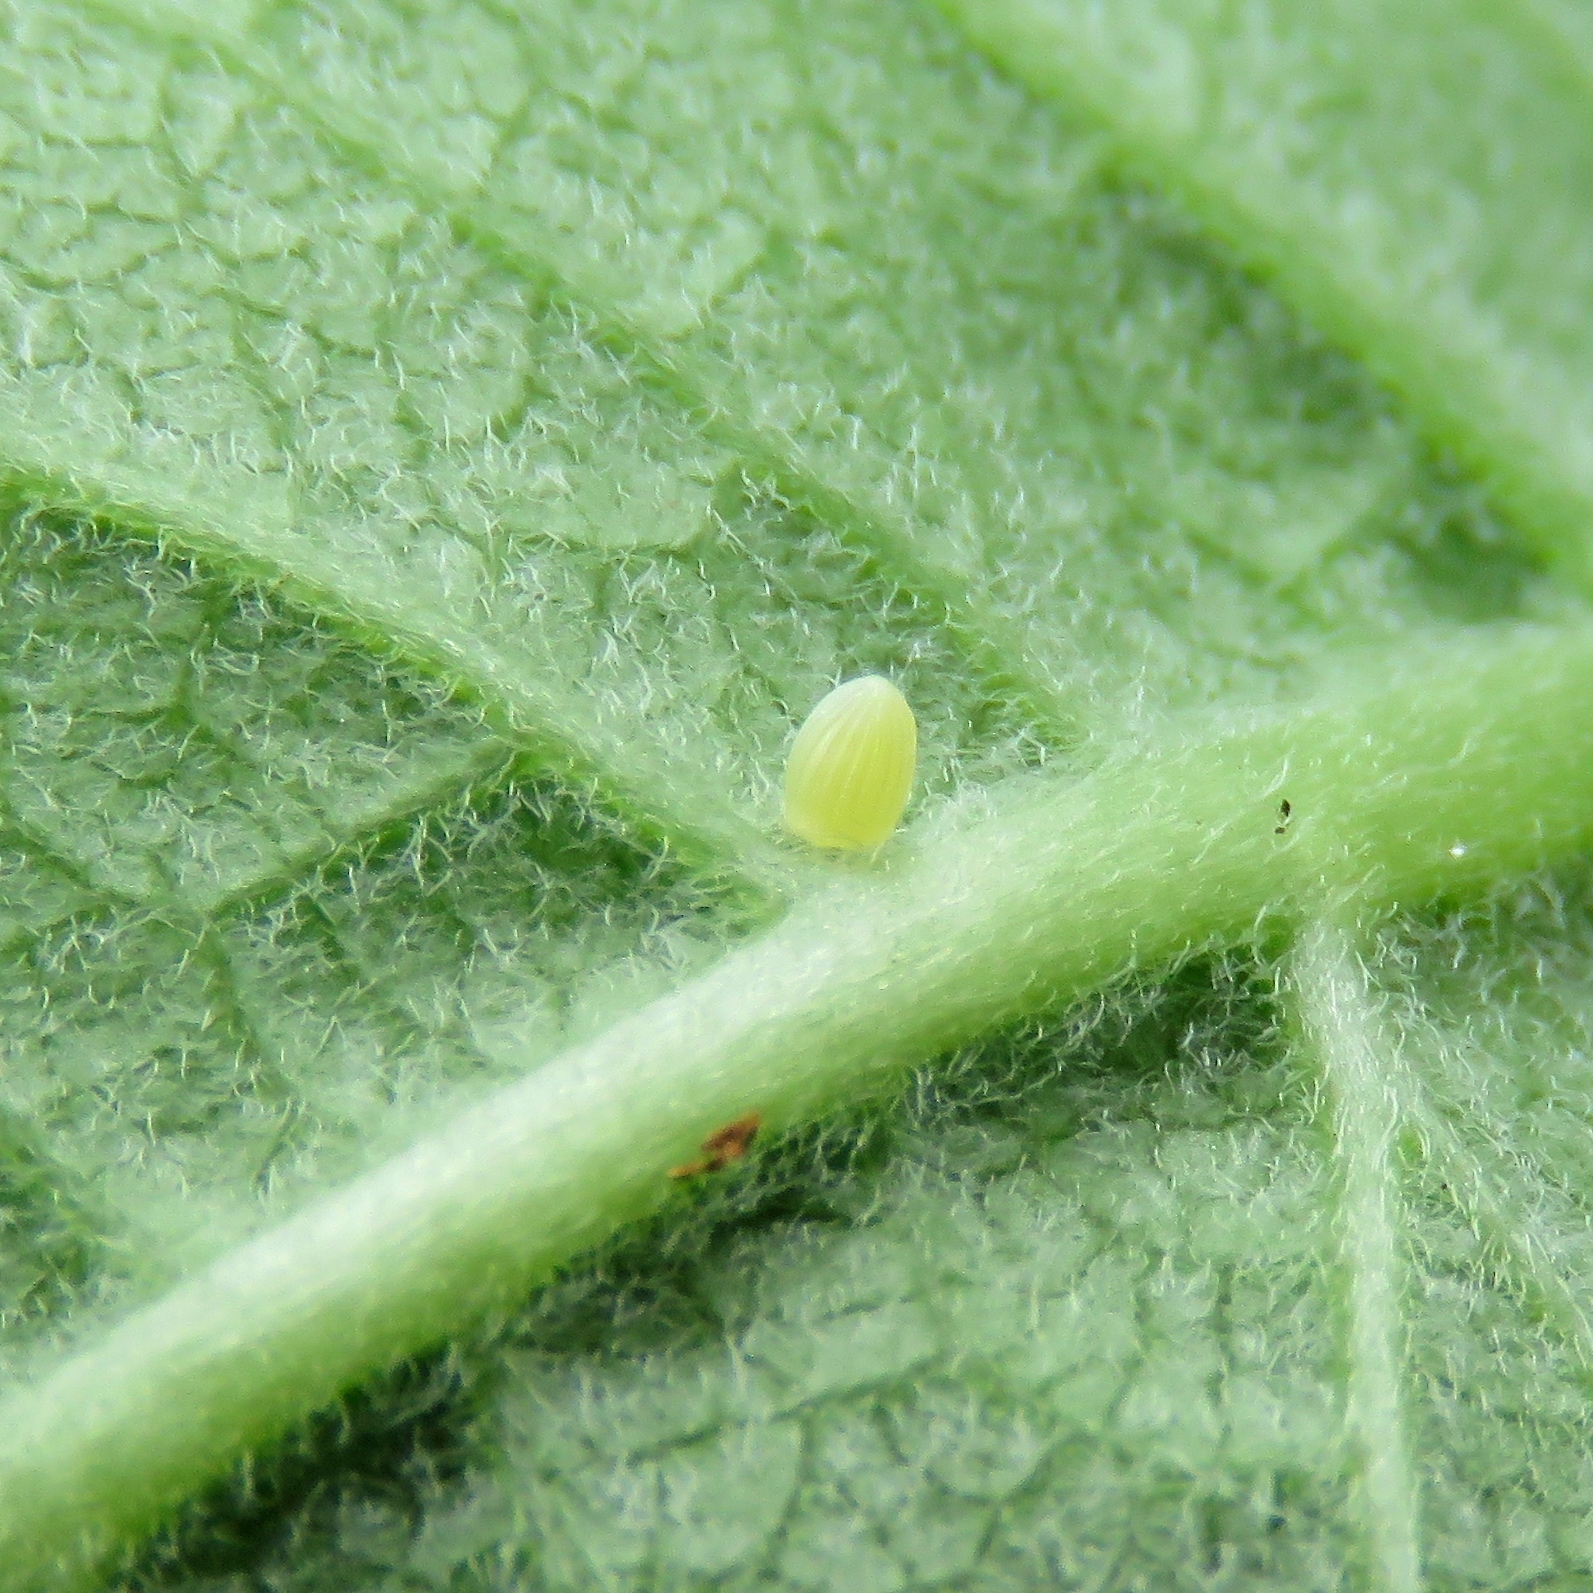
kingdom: Animalia
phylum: Arthropoda
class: Insecta
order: Lepidoptera
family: Nymphalidae
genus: Danaus
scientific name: Danaus plexippus
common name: Monarch
